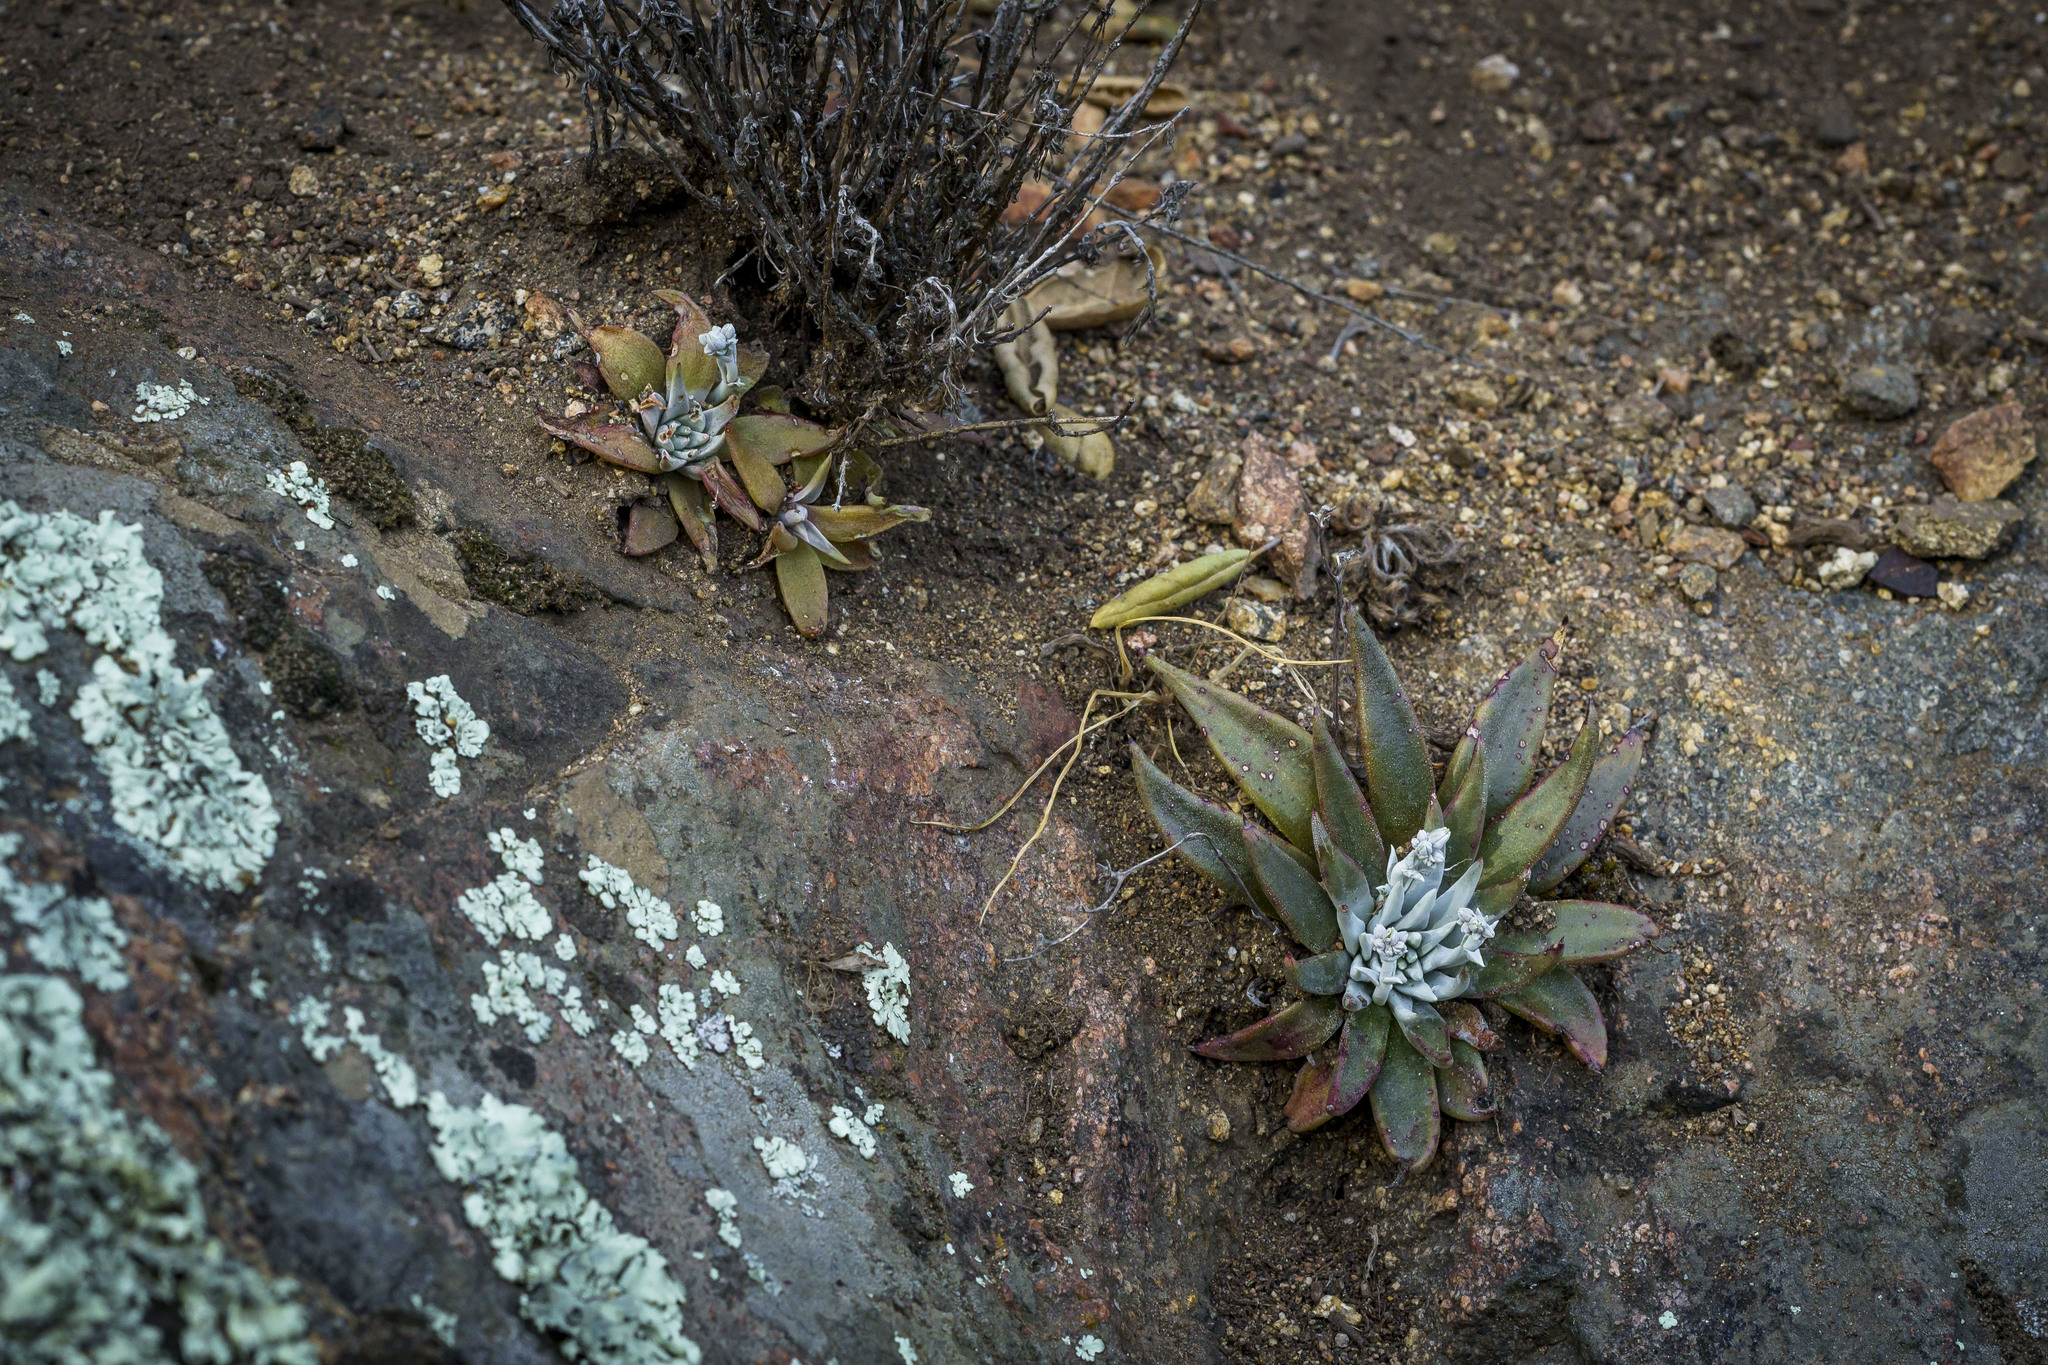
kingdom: Plantae
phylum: Tracheophyta
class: Magnoliopsida
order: Saxifragales
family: Crassulaceae
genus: Dudleya
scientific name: Dudleya abramsii
